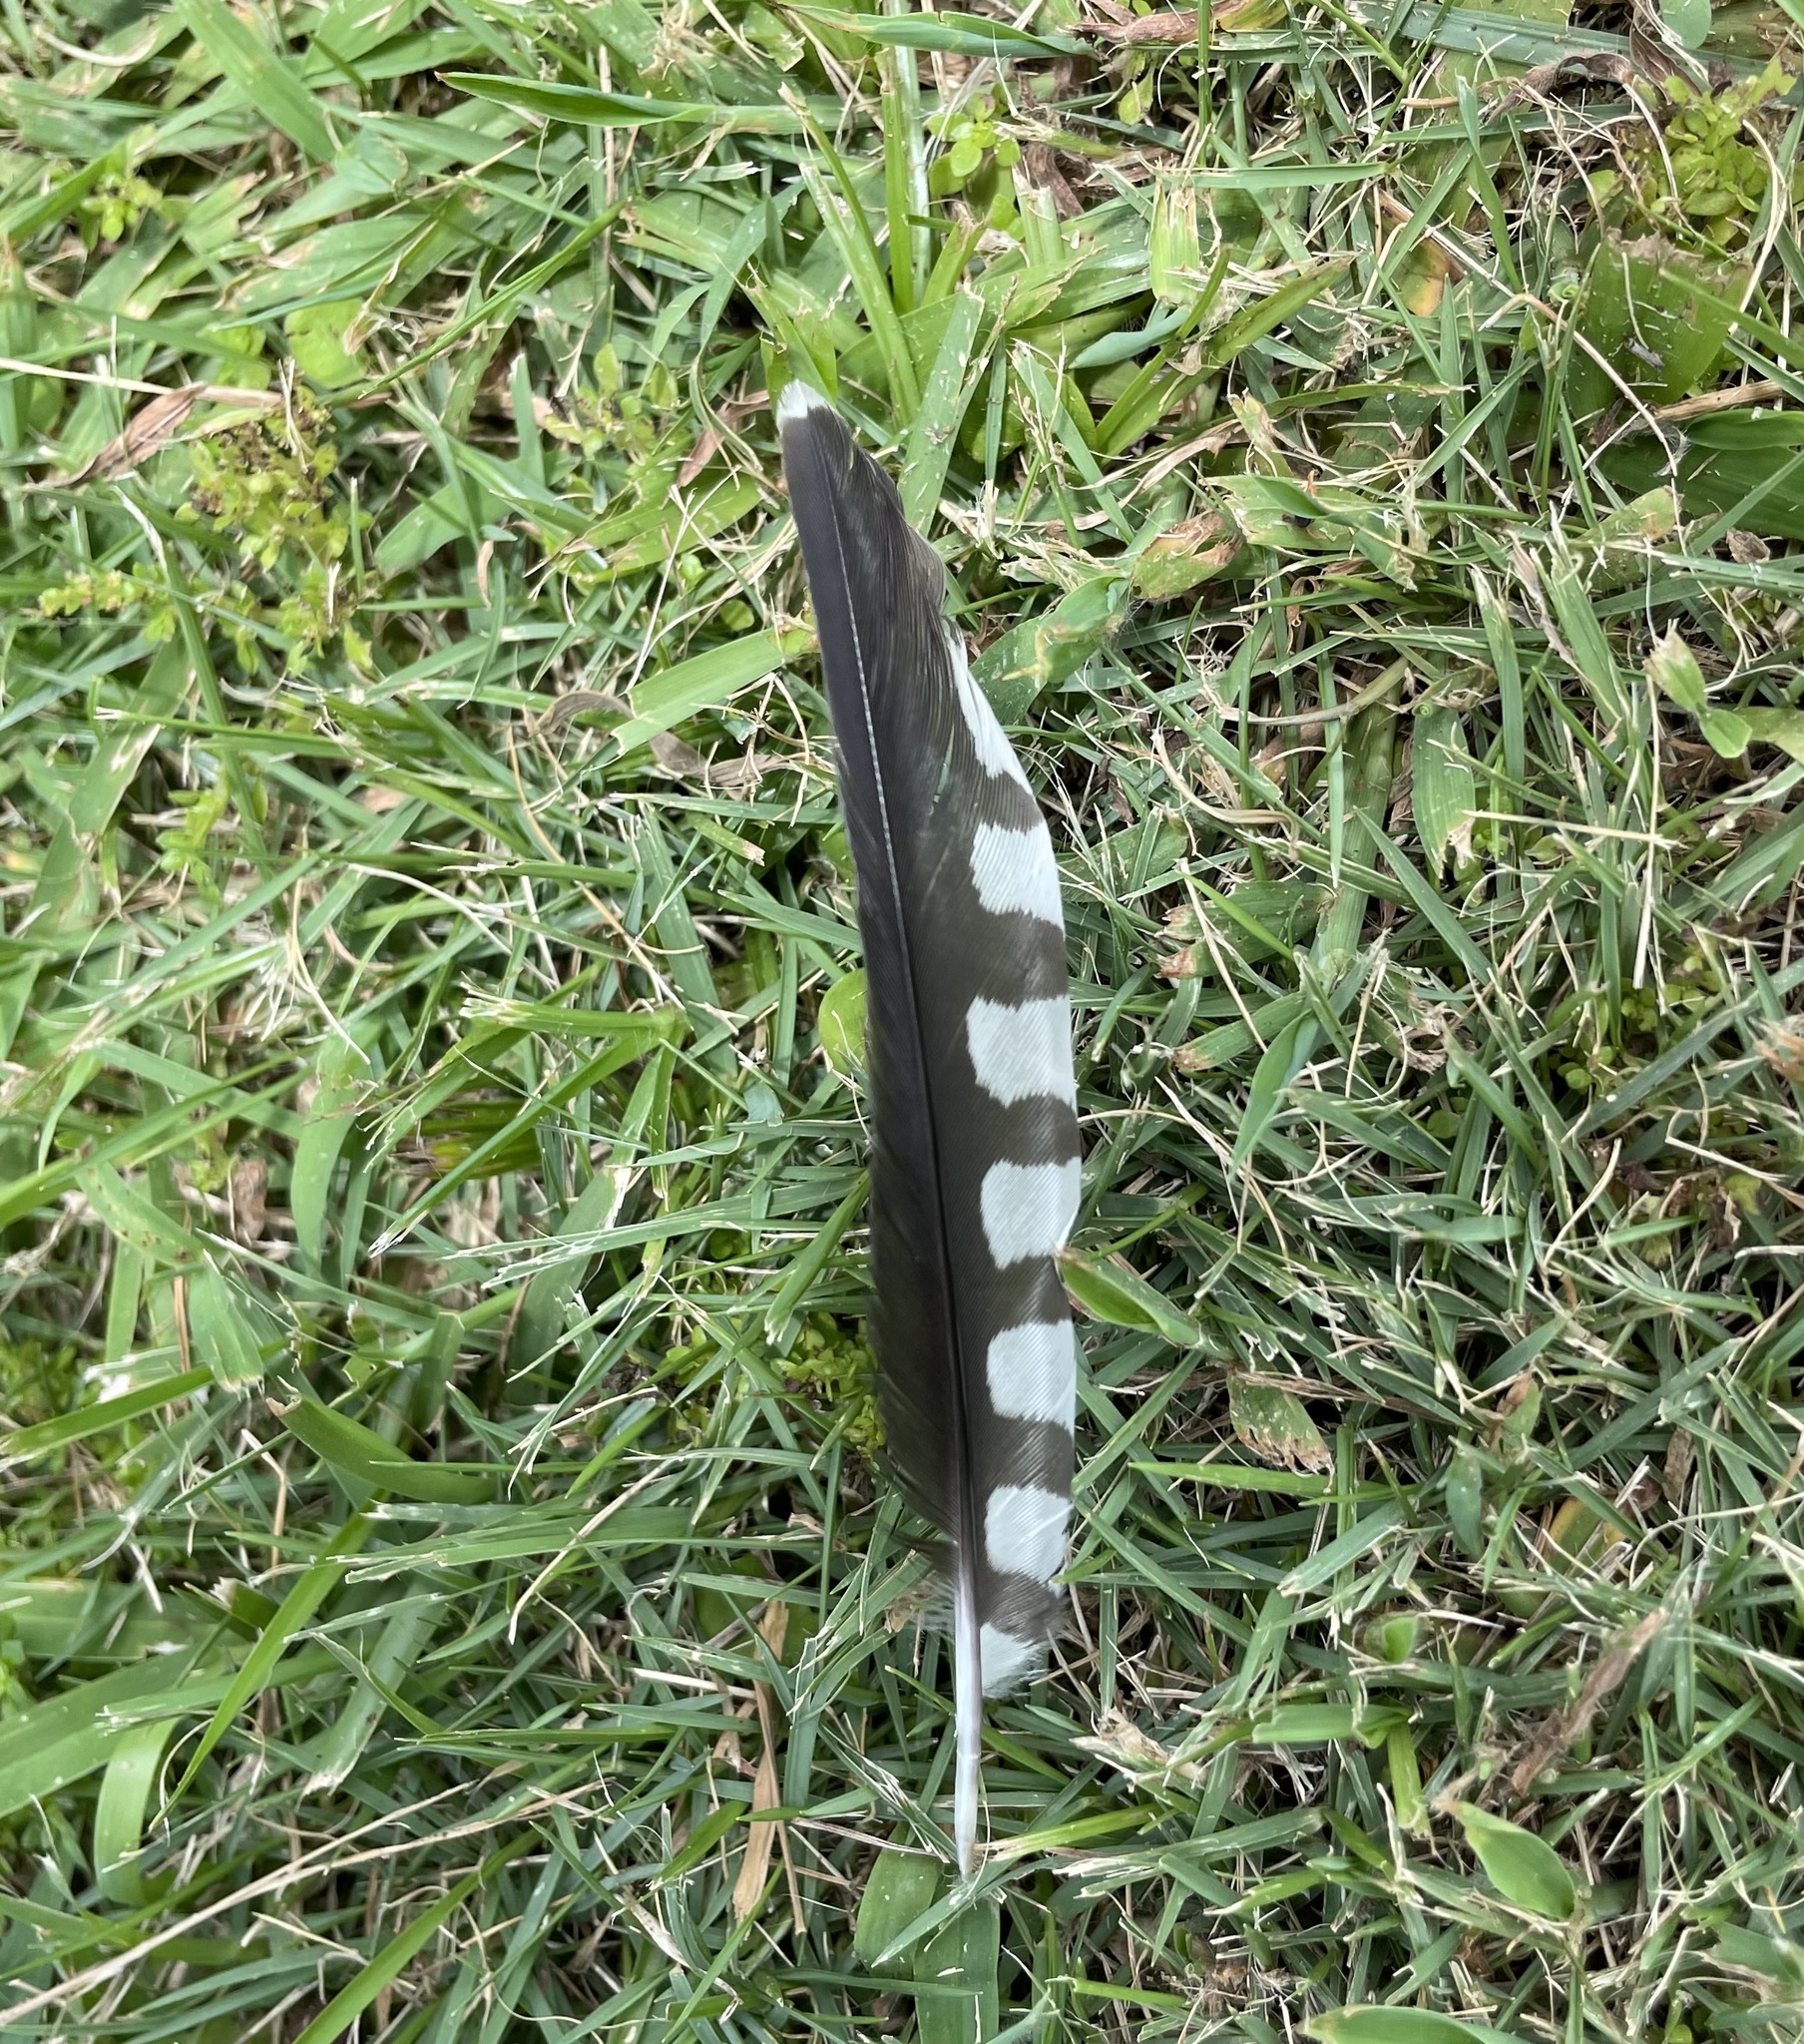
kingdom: Animalia
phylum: Chordata
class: Aves
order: Piciformes
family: Picidae
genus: Melanerpes
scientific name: Melanerpes carolinus
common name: Red-bellied woodpecker
